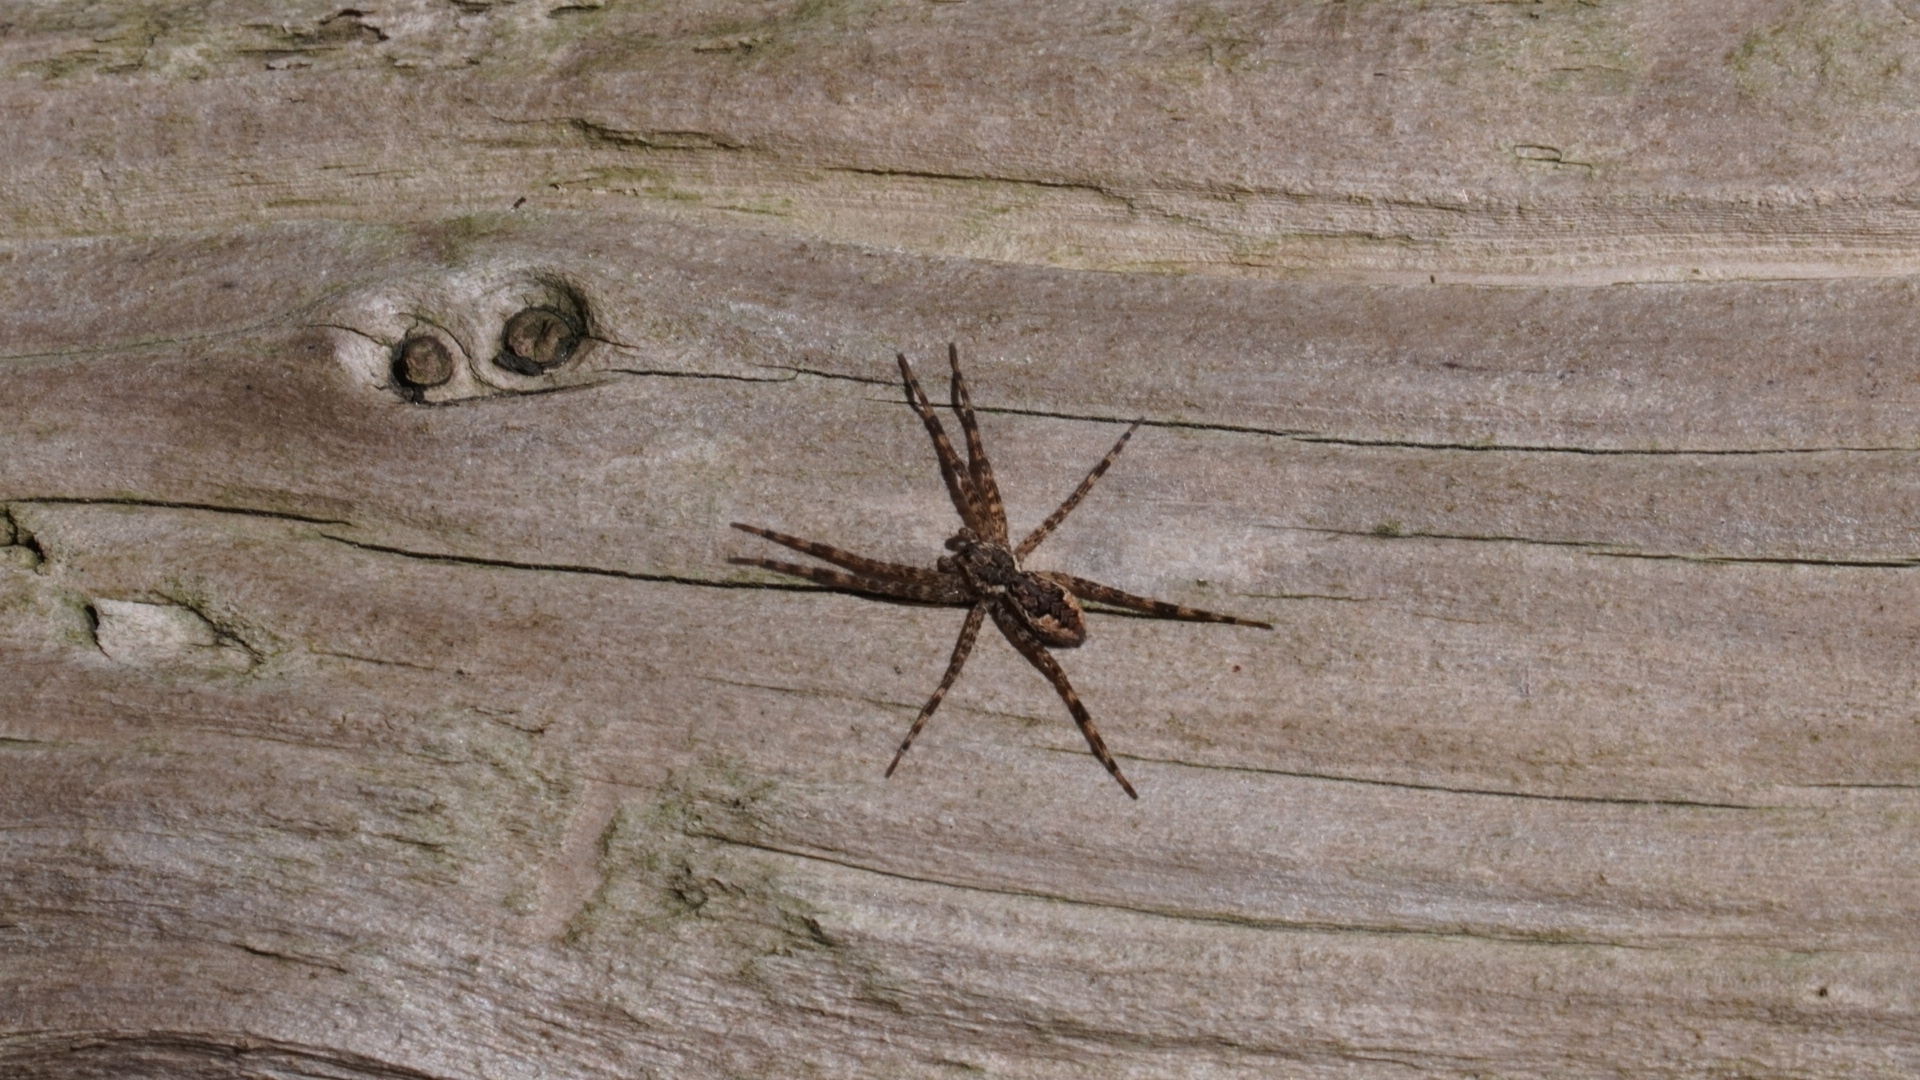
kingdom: Animalia
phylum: Arthropoda
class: Arachnida
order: Araneae
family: Pisauridae
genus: Dolomedes
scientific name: Dolomedes tenebrosus
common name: Dark fishing spider
